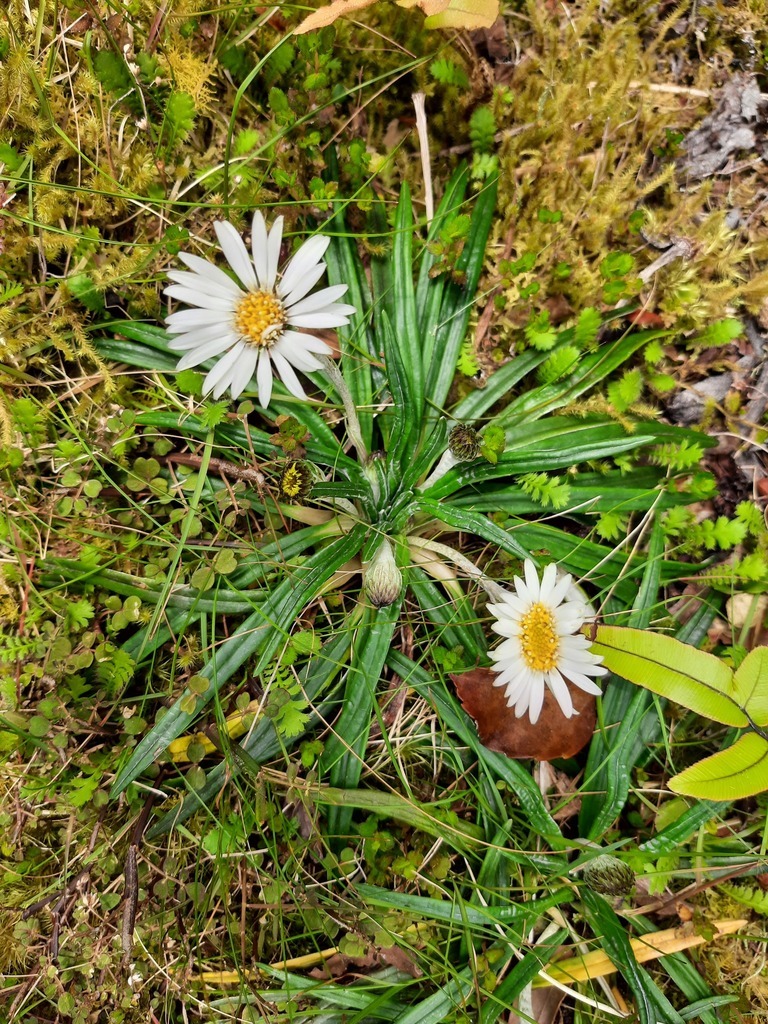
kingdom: Plantae
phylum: Tracheophyta
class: Magnoliopsida
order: Asterales
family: Asteraceae
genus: Celmisia
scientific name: Celmisia major
